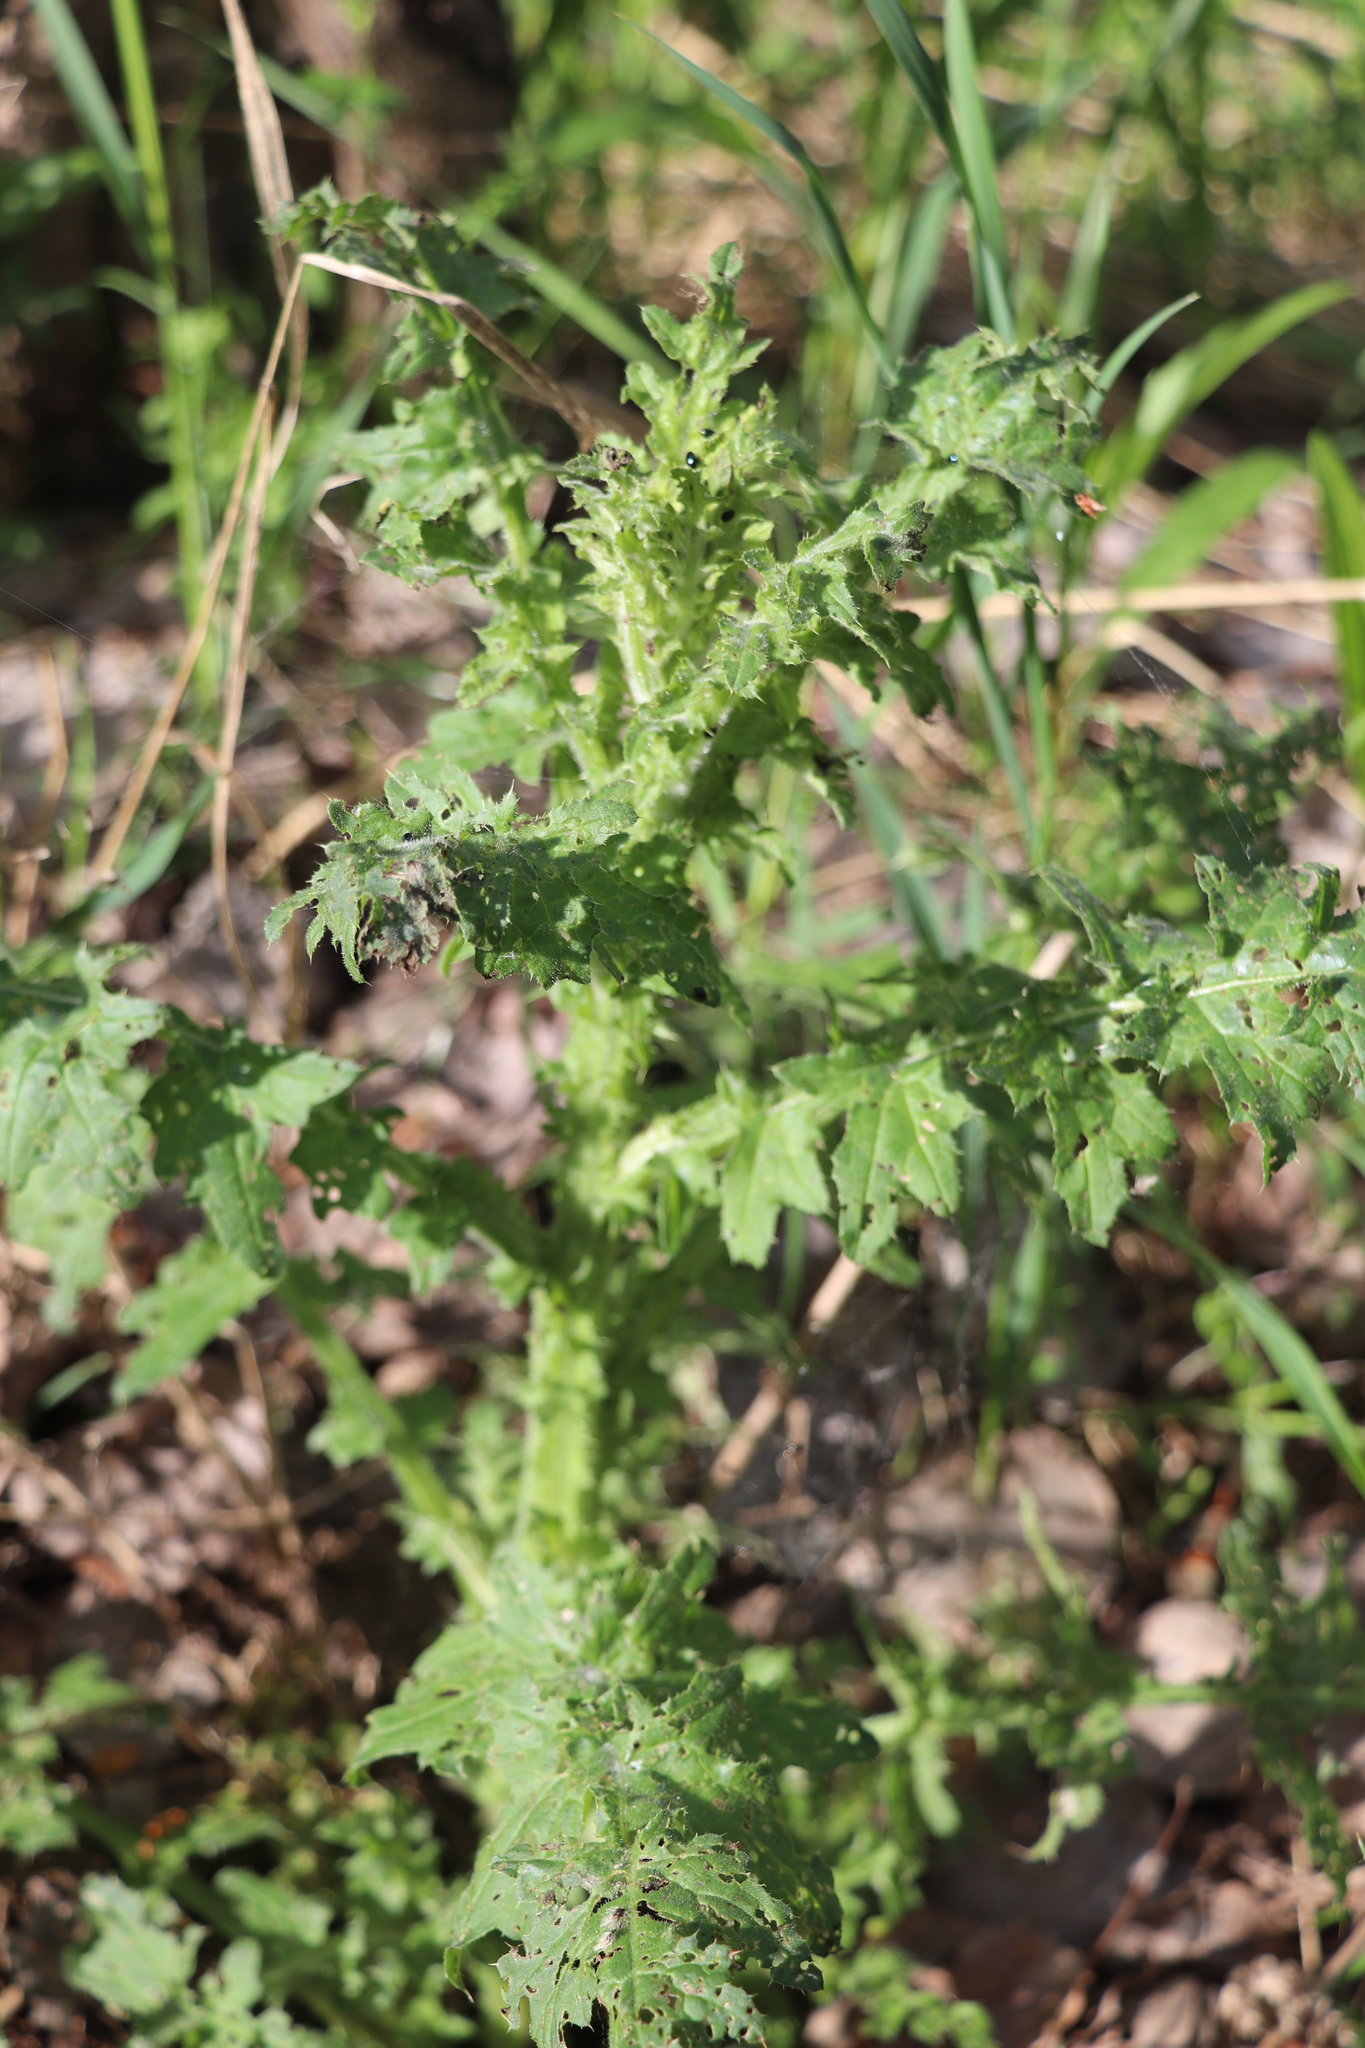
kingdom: Plantae
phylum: Tracheophyta
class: Magnoliopsida
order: Asterales
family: Asteraceae
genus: Carduus
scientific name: Carduus crispus
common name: Welted thistle
